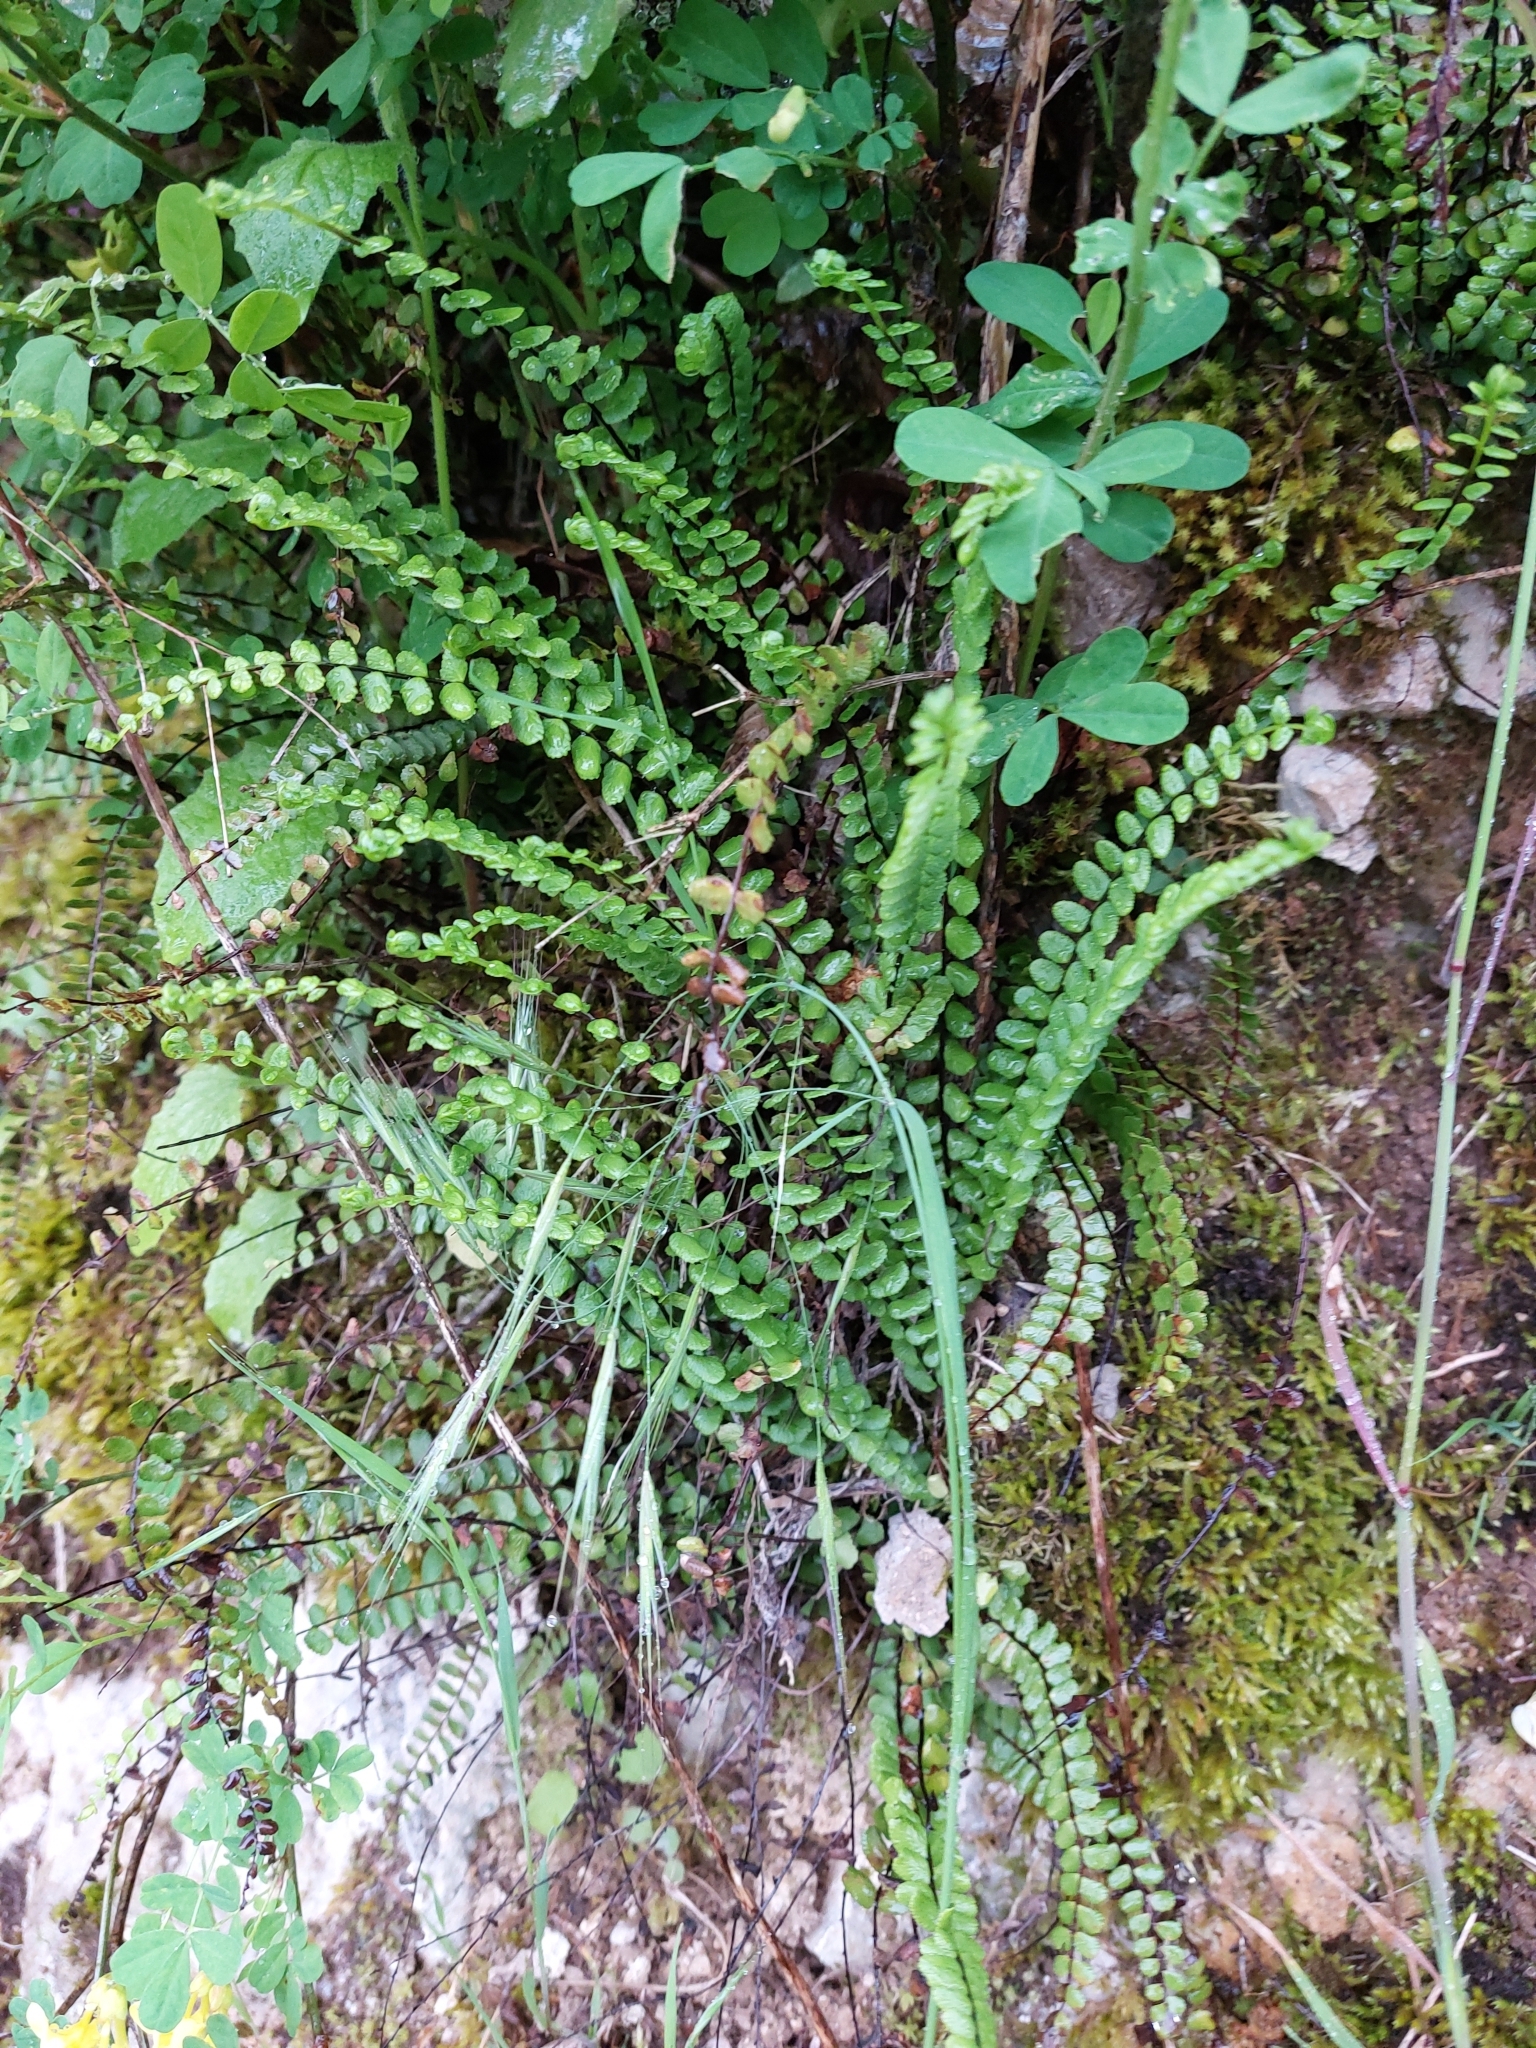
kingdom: Plantae
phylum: Tracheophyta
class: Polypodiopsida
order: Polypodiales
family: Aspleniaceae
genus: Asplenium
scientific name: Asplenium trichomanes
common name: Maidenhair spleenwort
